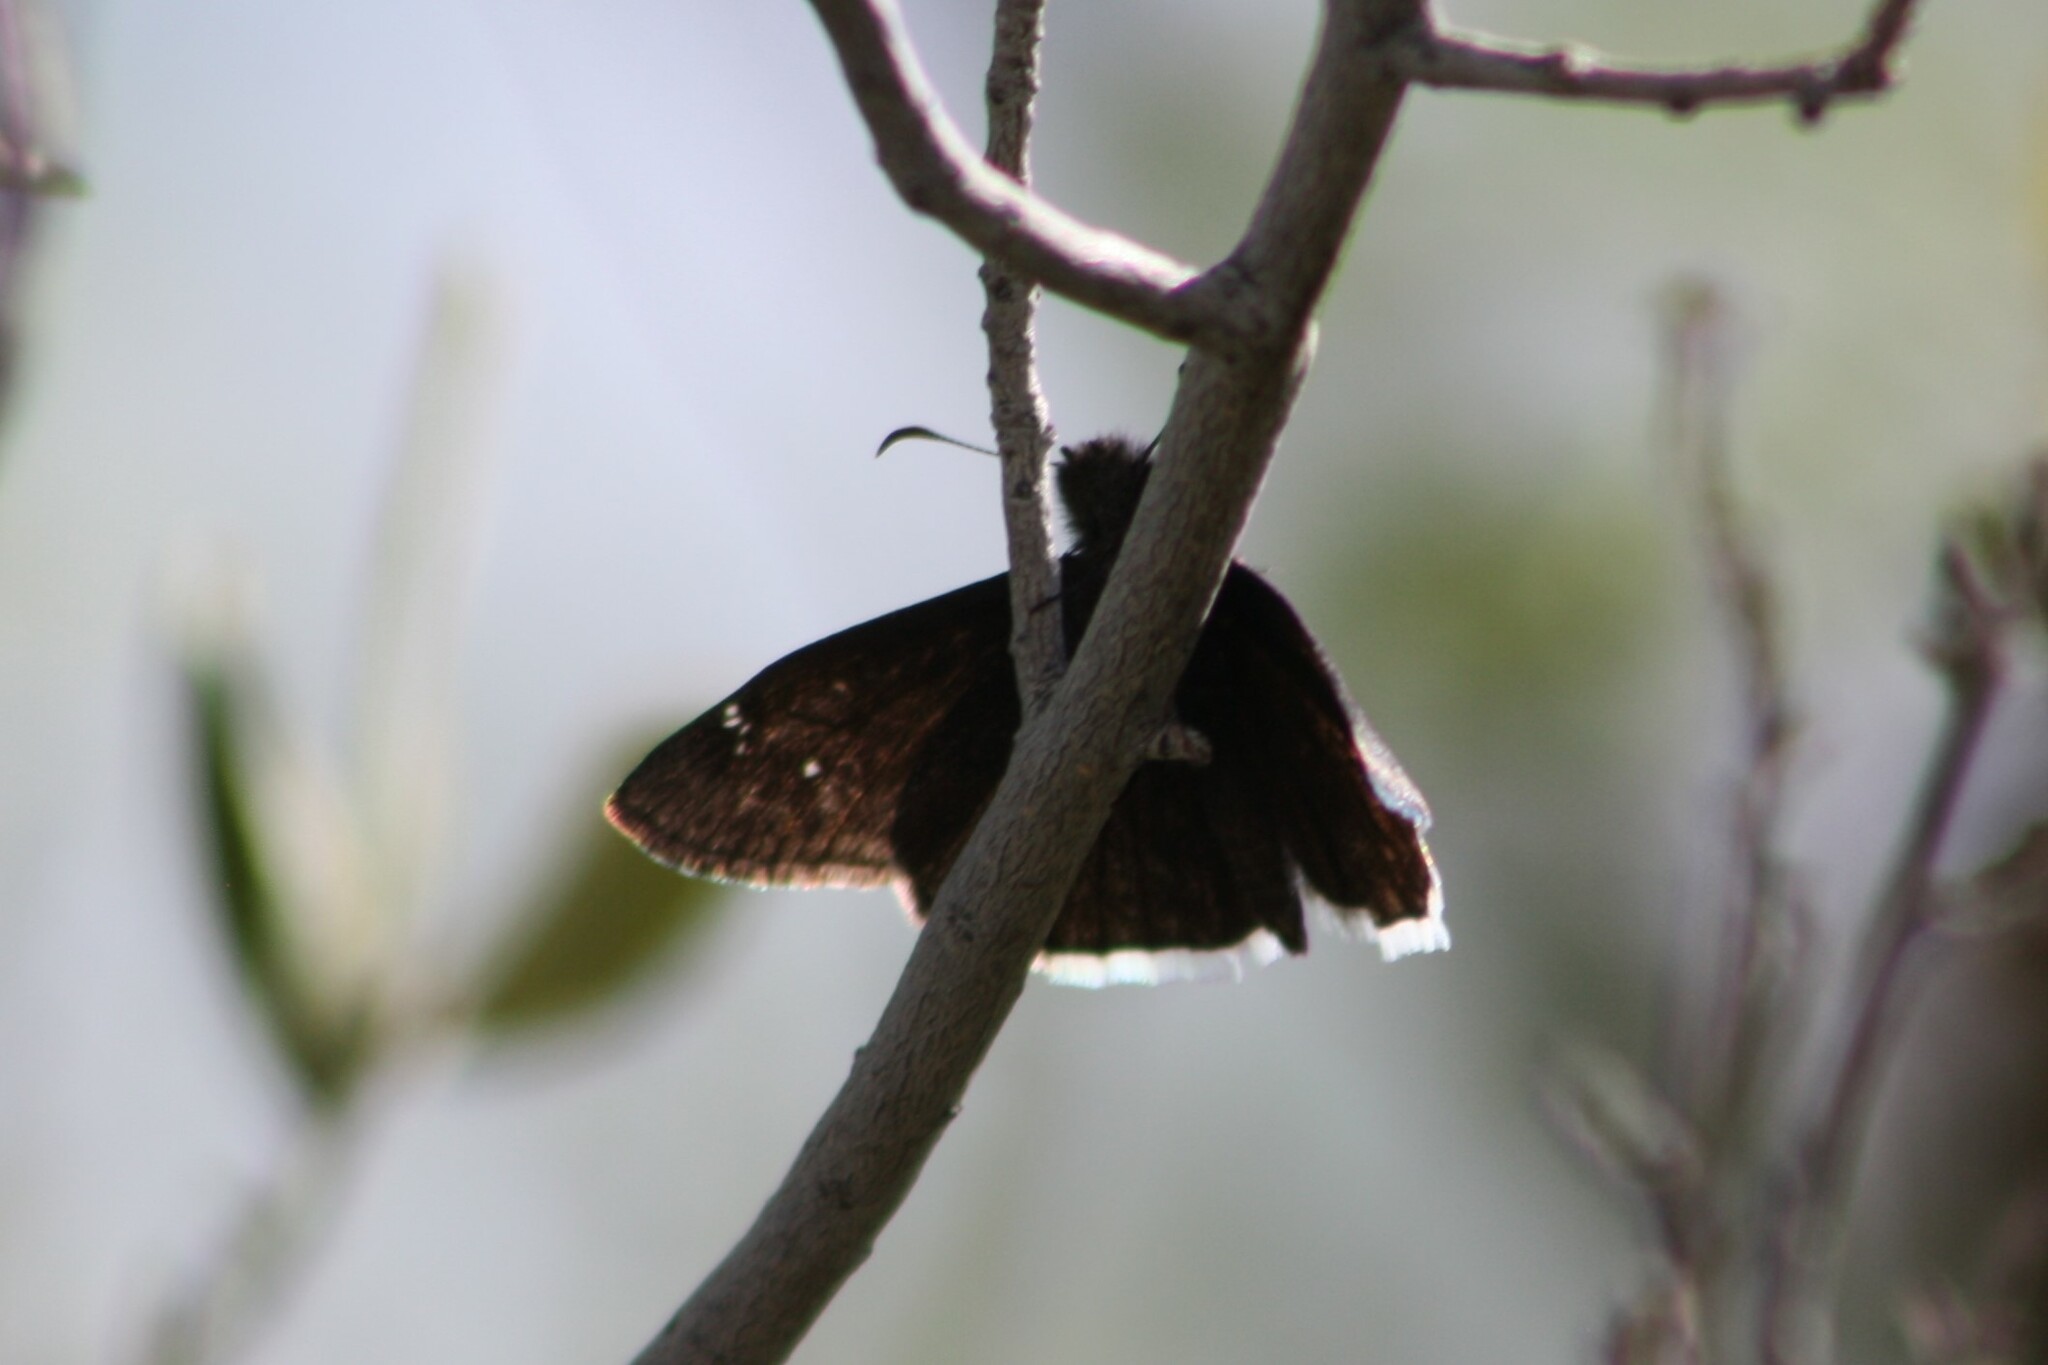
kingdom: Animalia
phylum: Arthropoda
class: Insecta
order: Lepidoptera
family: Hesperiidae
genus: Erynnis
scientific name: Erynnis funeralis
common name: Funereal duskywing
